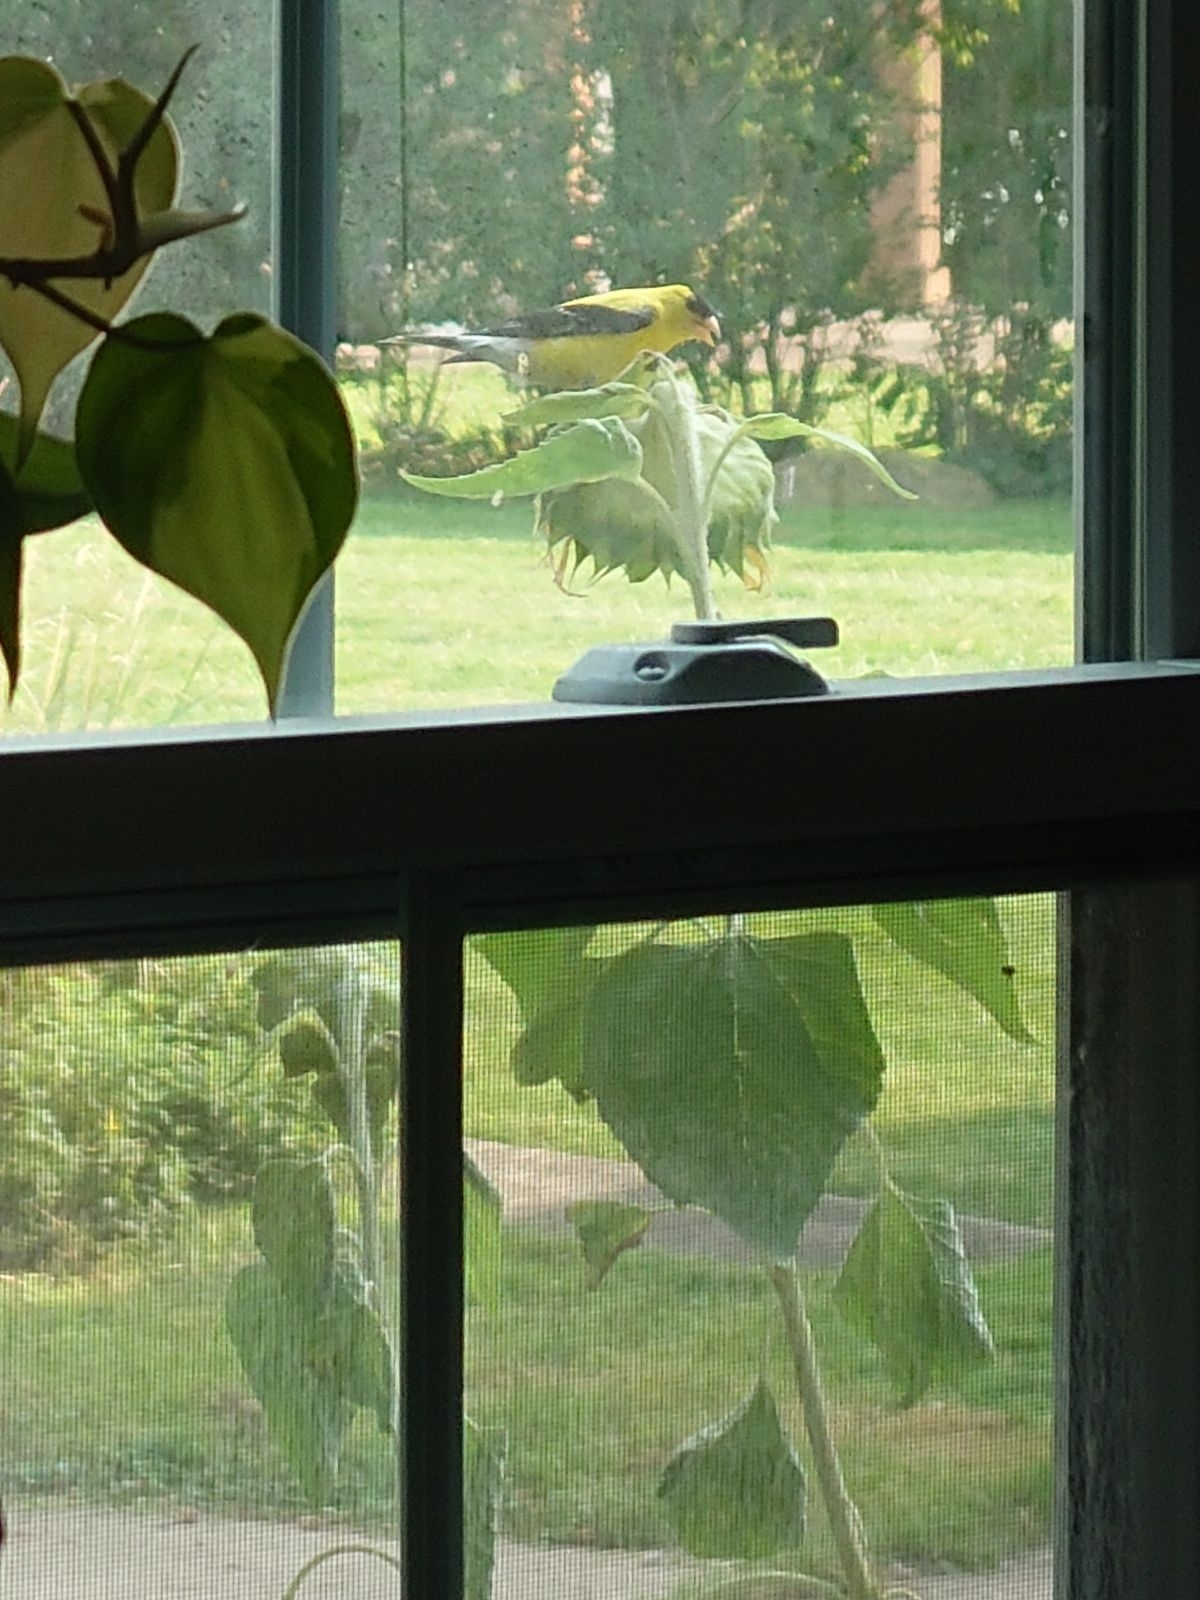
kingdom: Animalia
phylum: Chordata
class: Aves
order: Passeriformes
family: Fringillidae
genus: Spinus
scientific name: Spinus tristis
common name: American goldfinch
